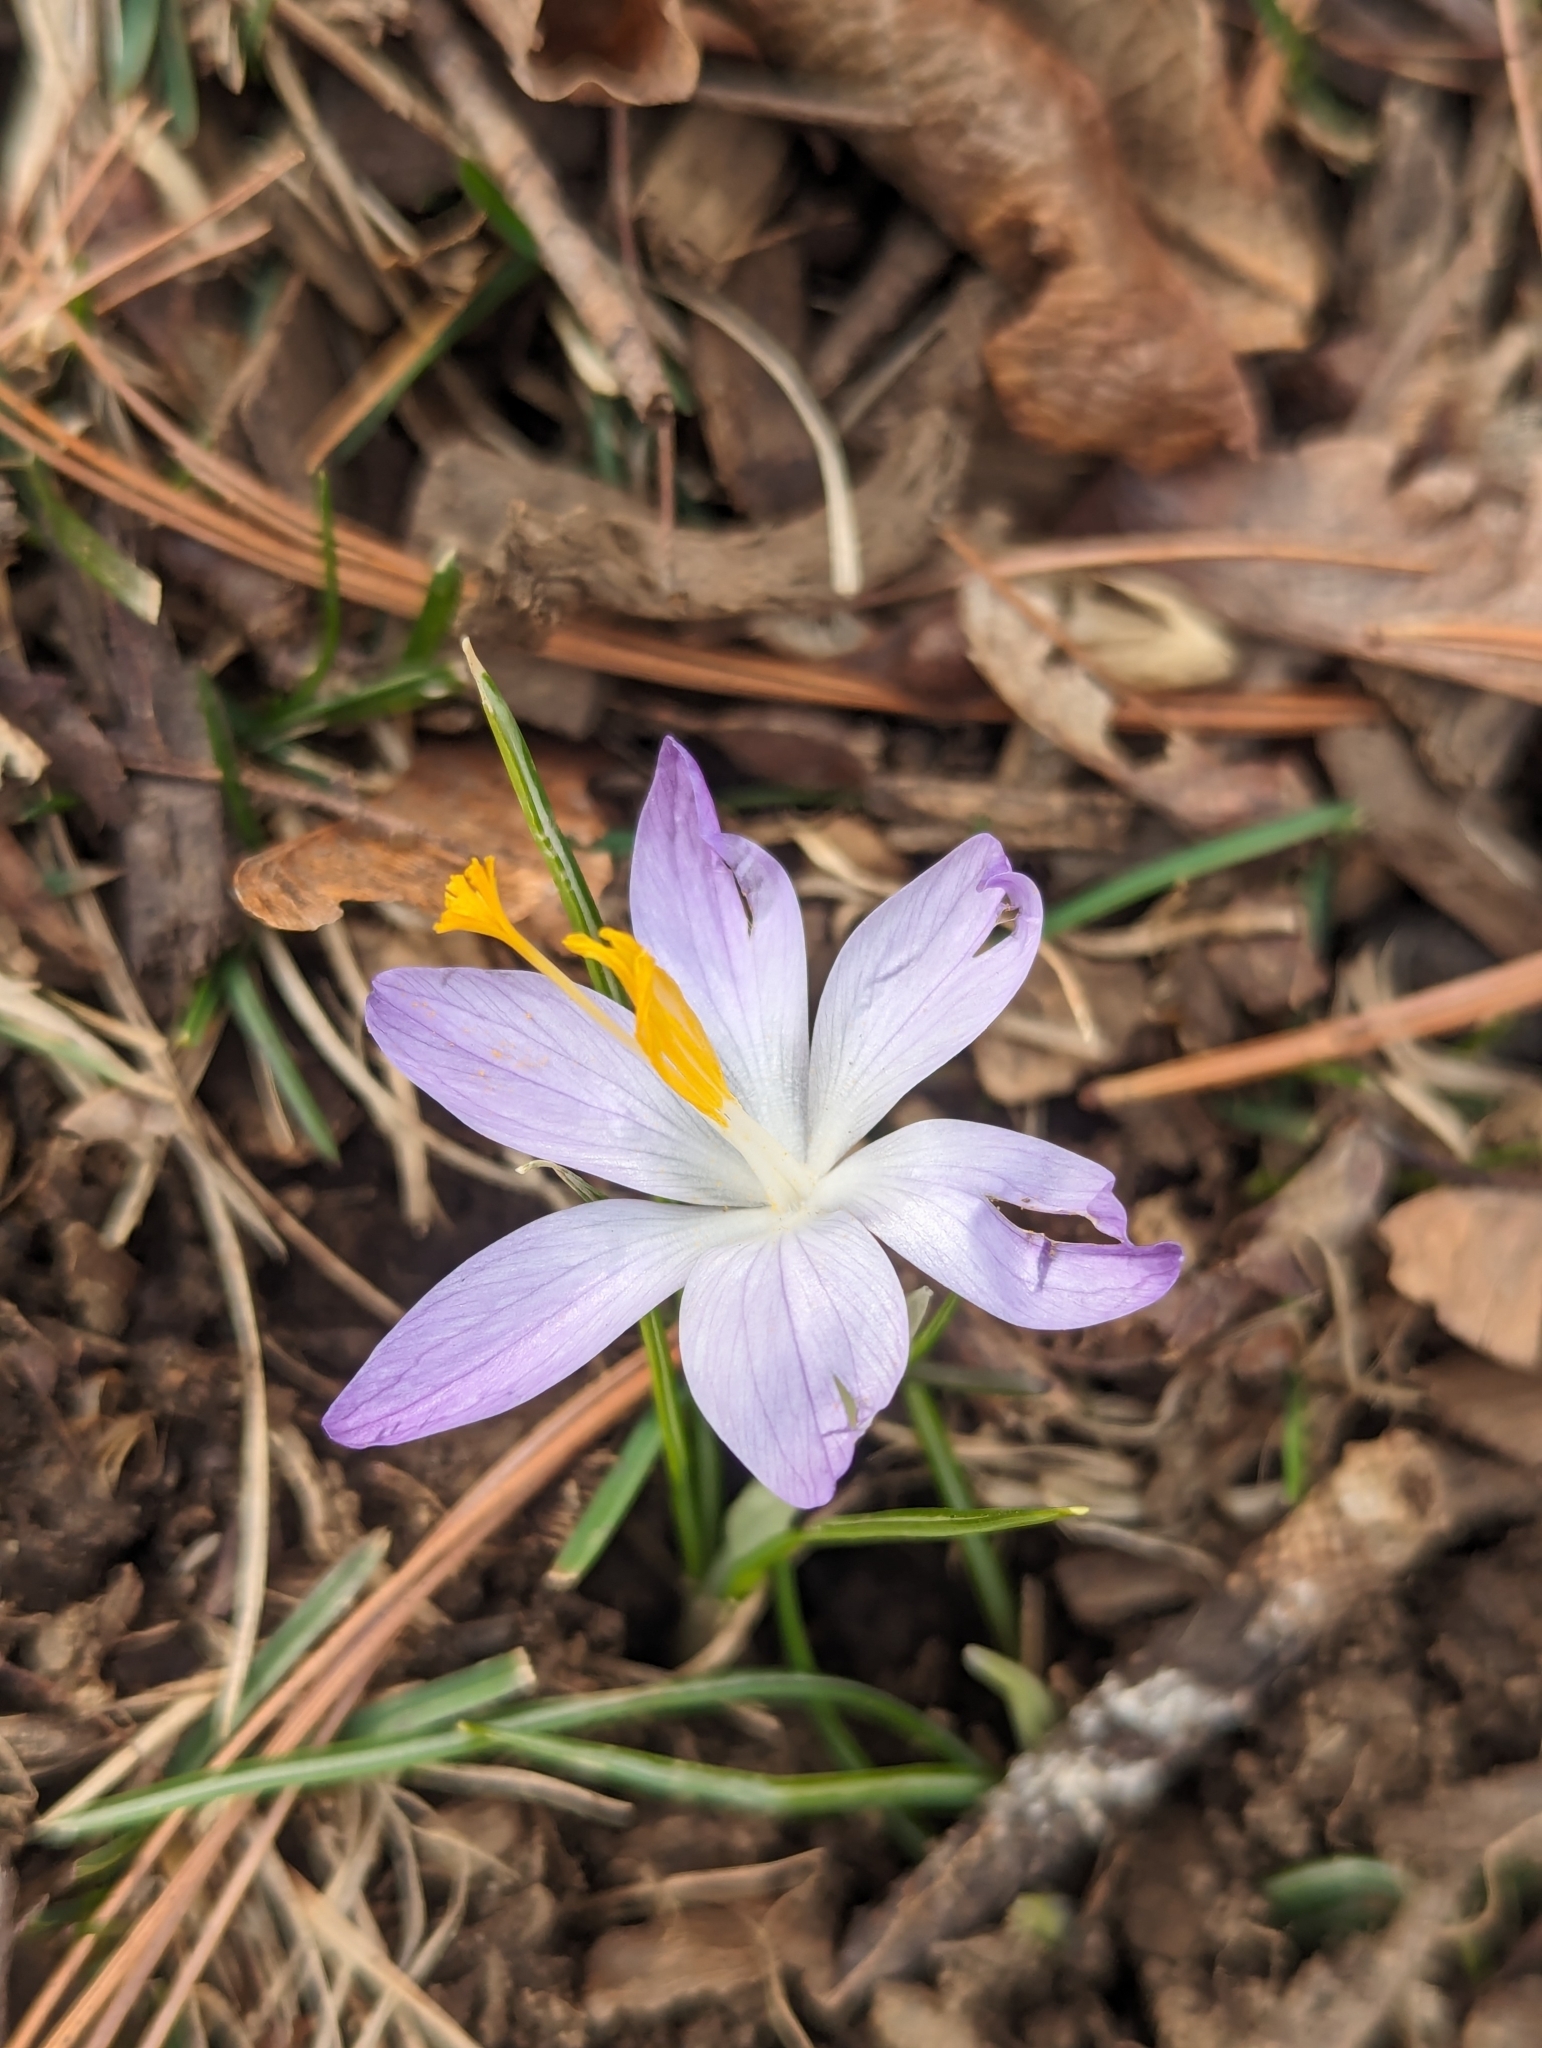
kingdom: Plantae
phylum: Tracheophyta
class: Liliopsida
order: Asparagales
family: Iridaceae
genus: Crocus
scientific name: Crocus tommasinianus
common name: Early crocus
